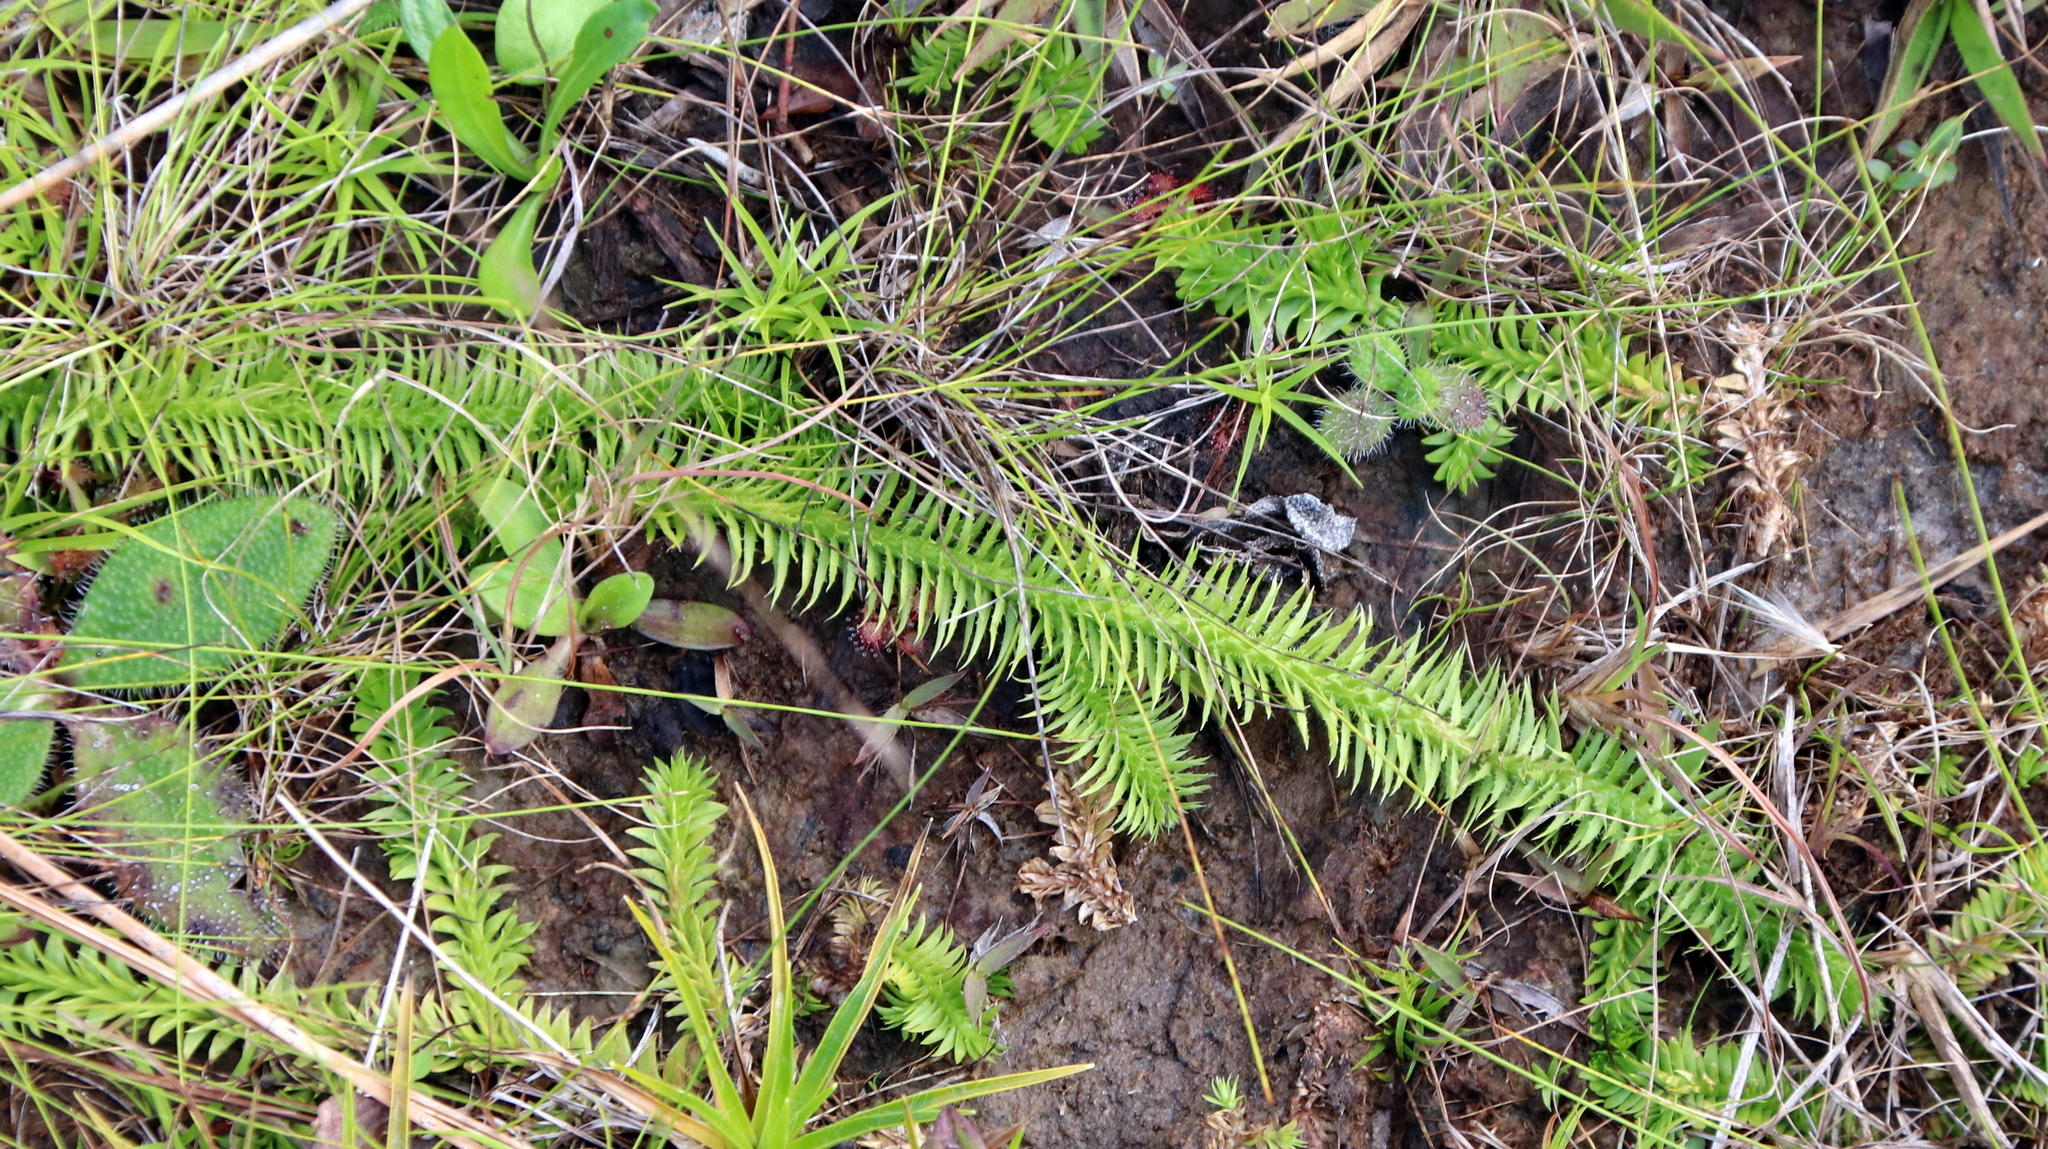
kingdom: Plantae
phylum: Tracheophyta
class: Lycopodiopsida
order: Lycopodiales
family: Lycopodiaceae
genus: Lycopodiella
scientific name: Lycopodiella alopecuroides
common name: Foxtail clubmoss
